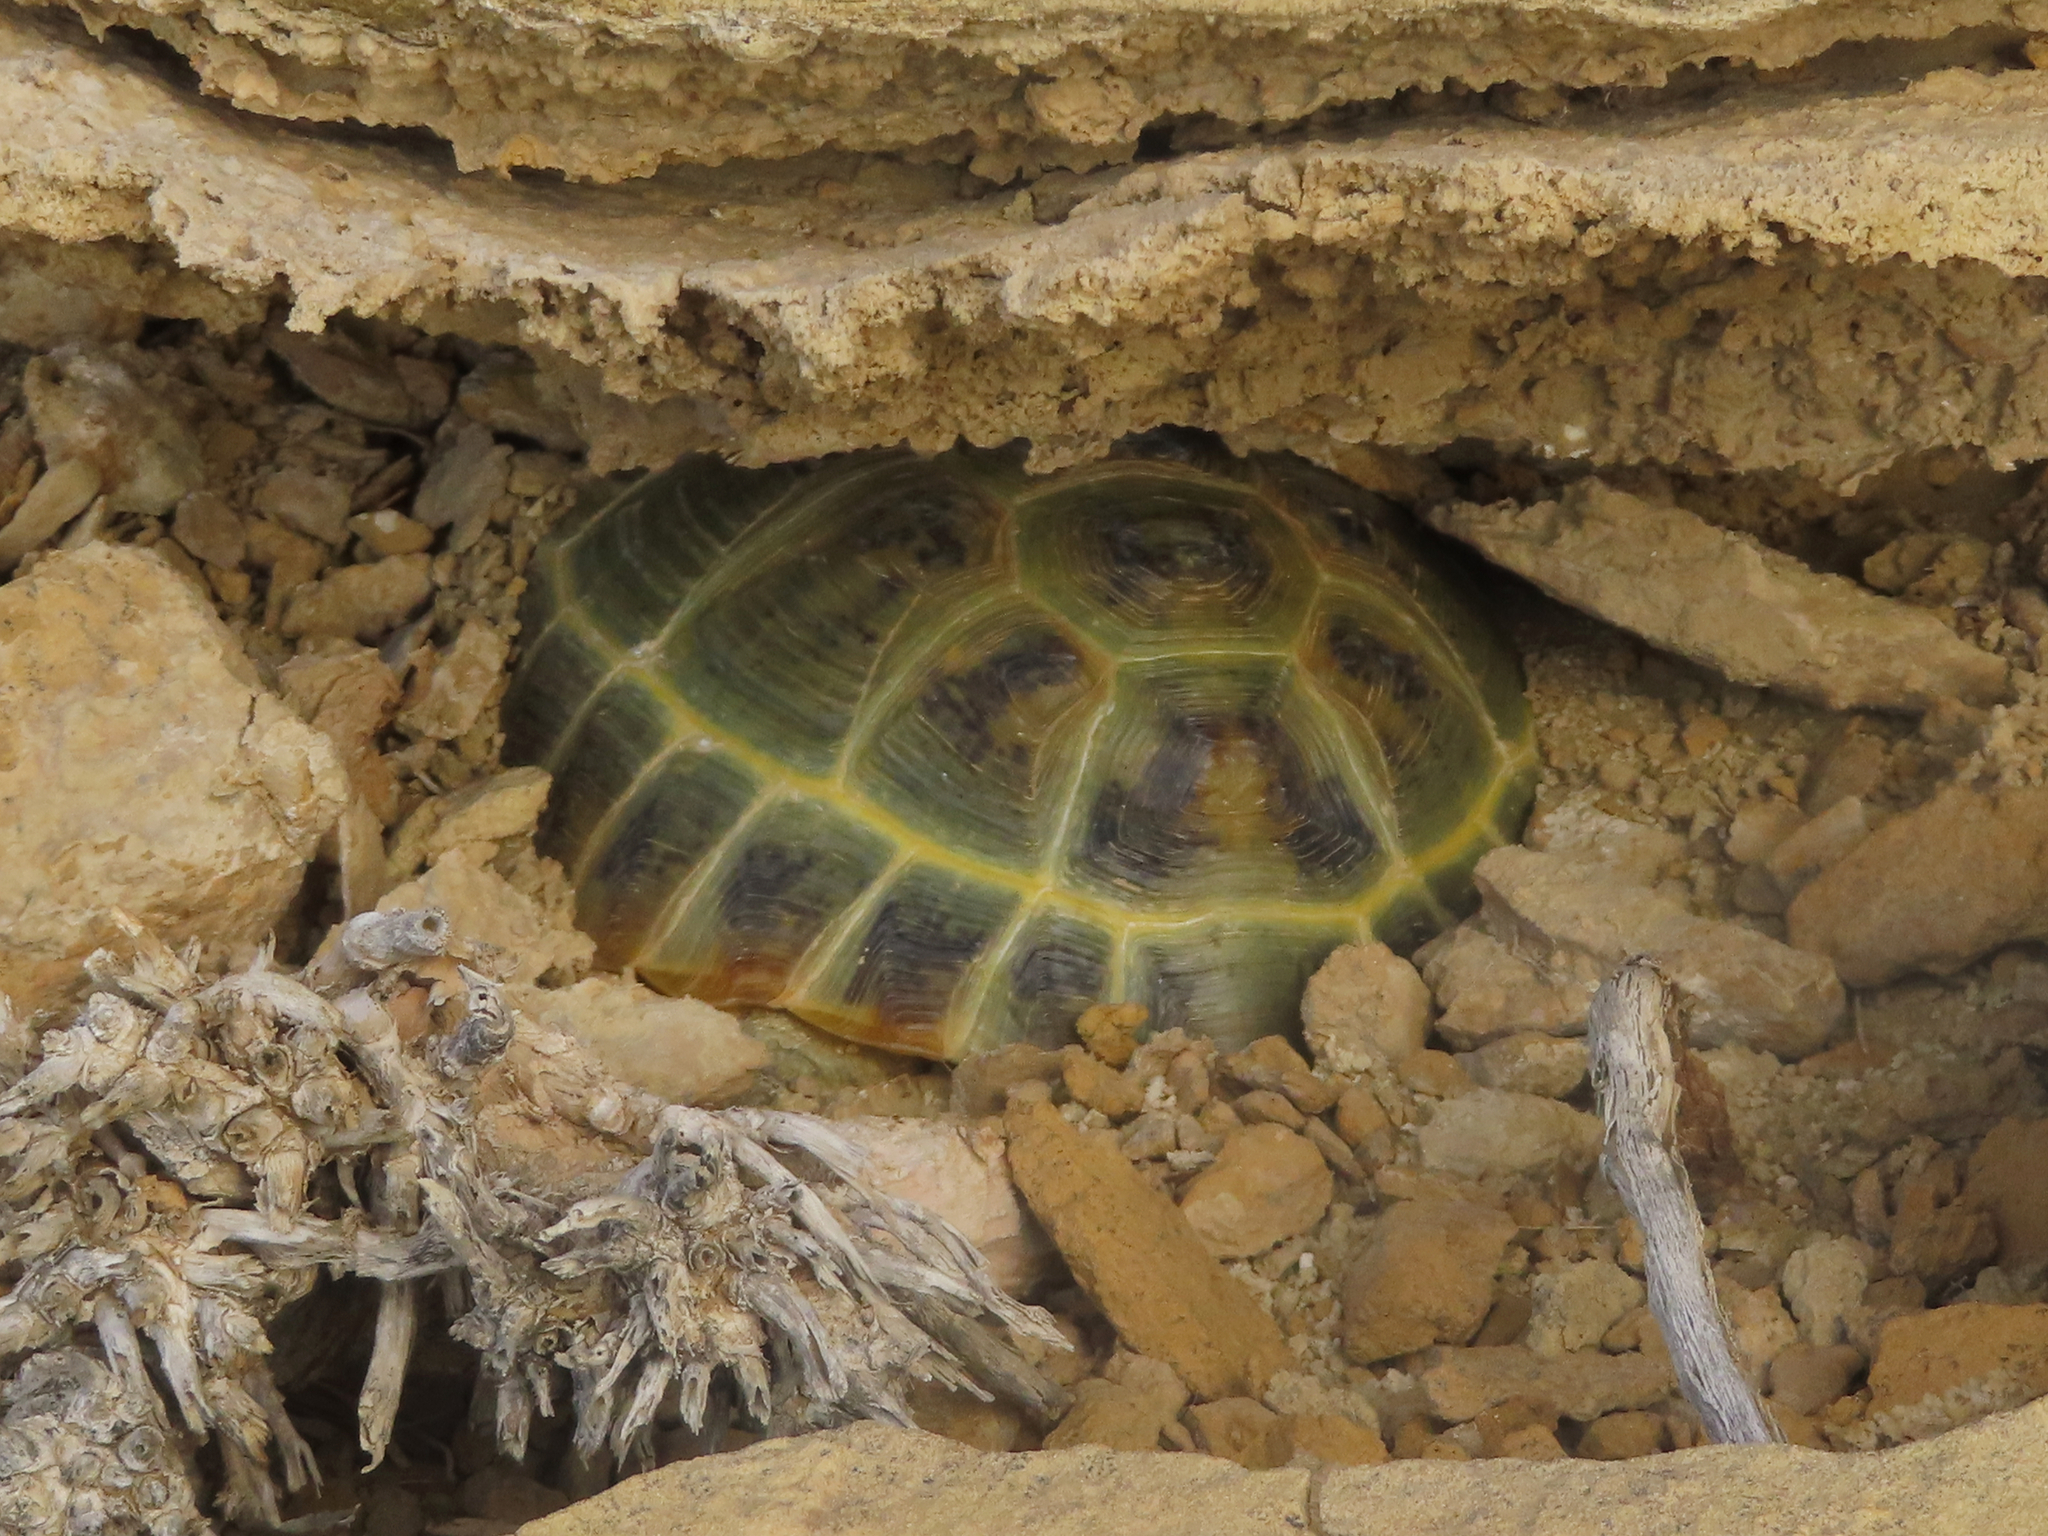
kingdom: Animalia
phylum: Chordata
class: Testudines
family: Testudinidae
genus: Testudo
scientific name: Testudo horsfieldii
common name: Central asia tortoise
